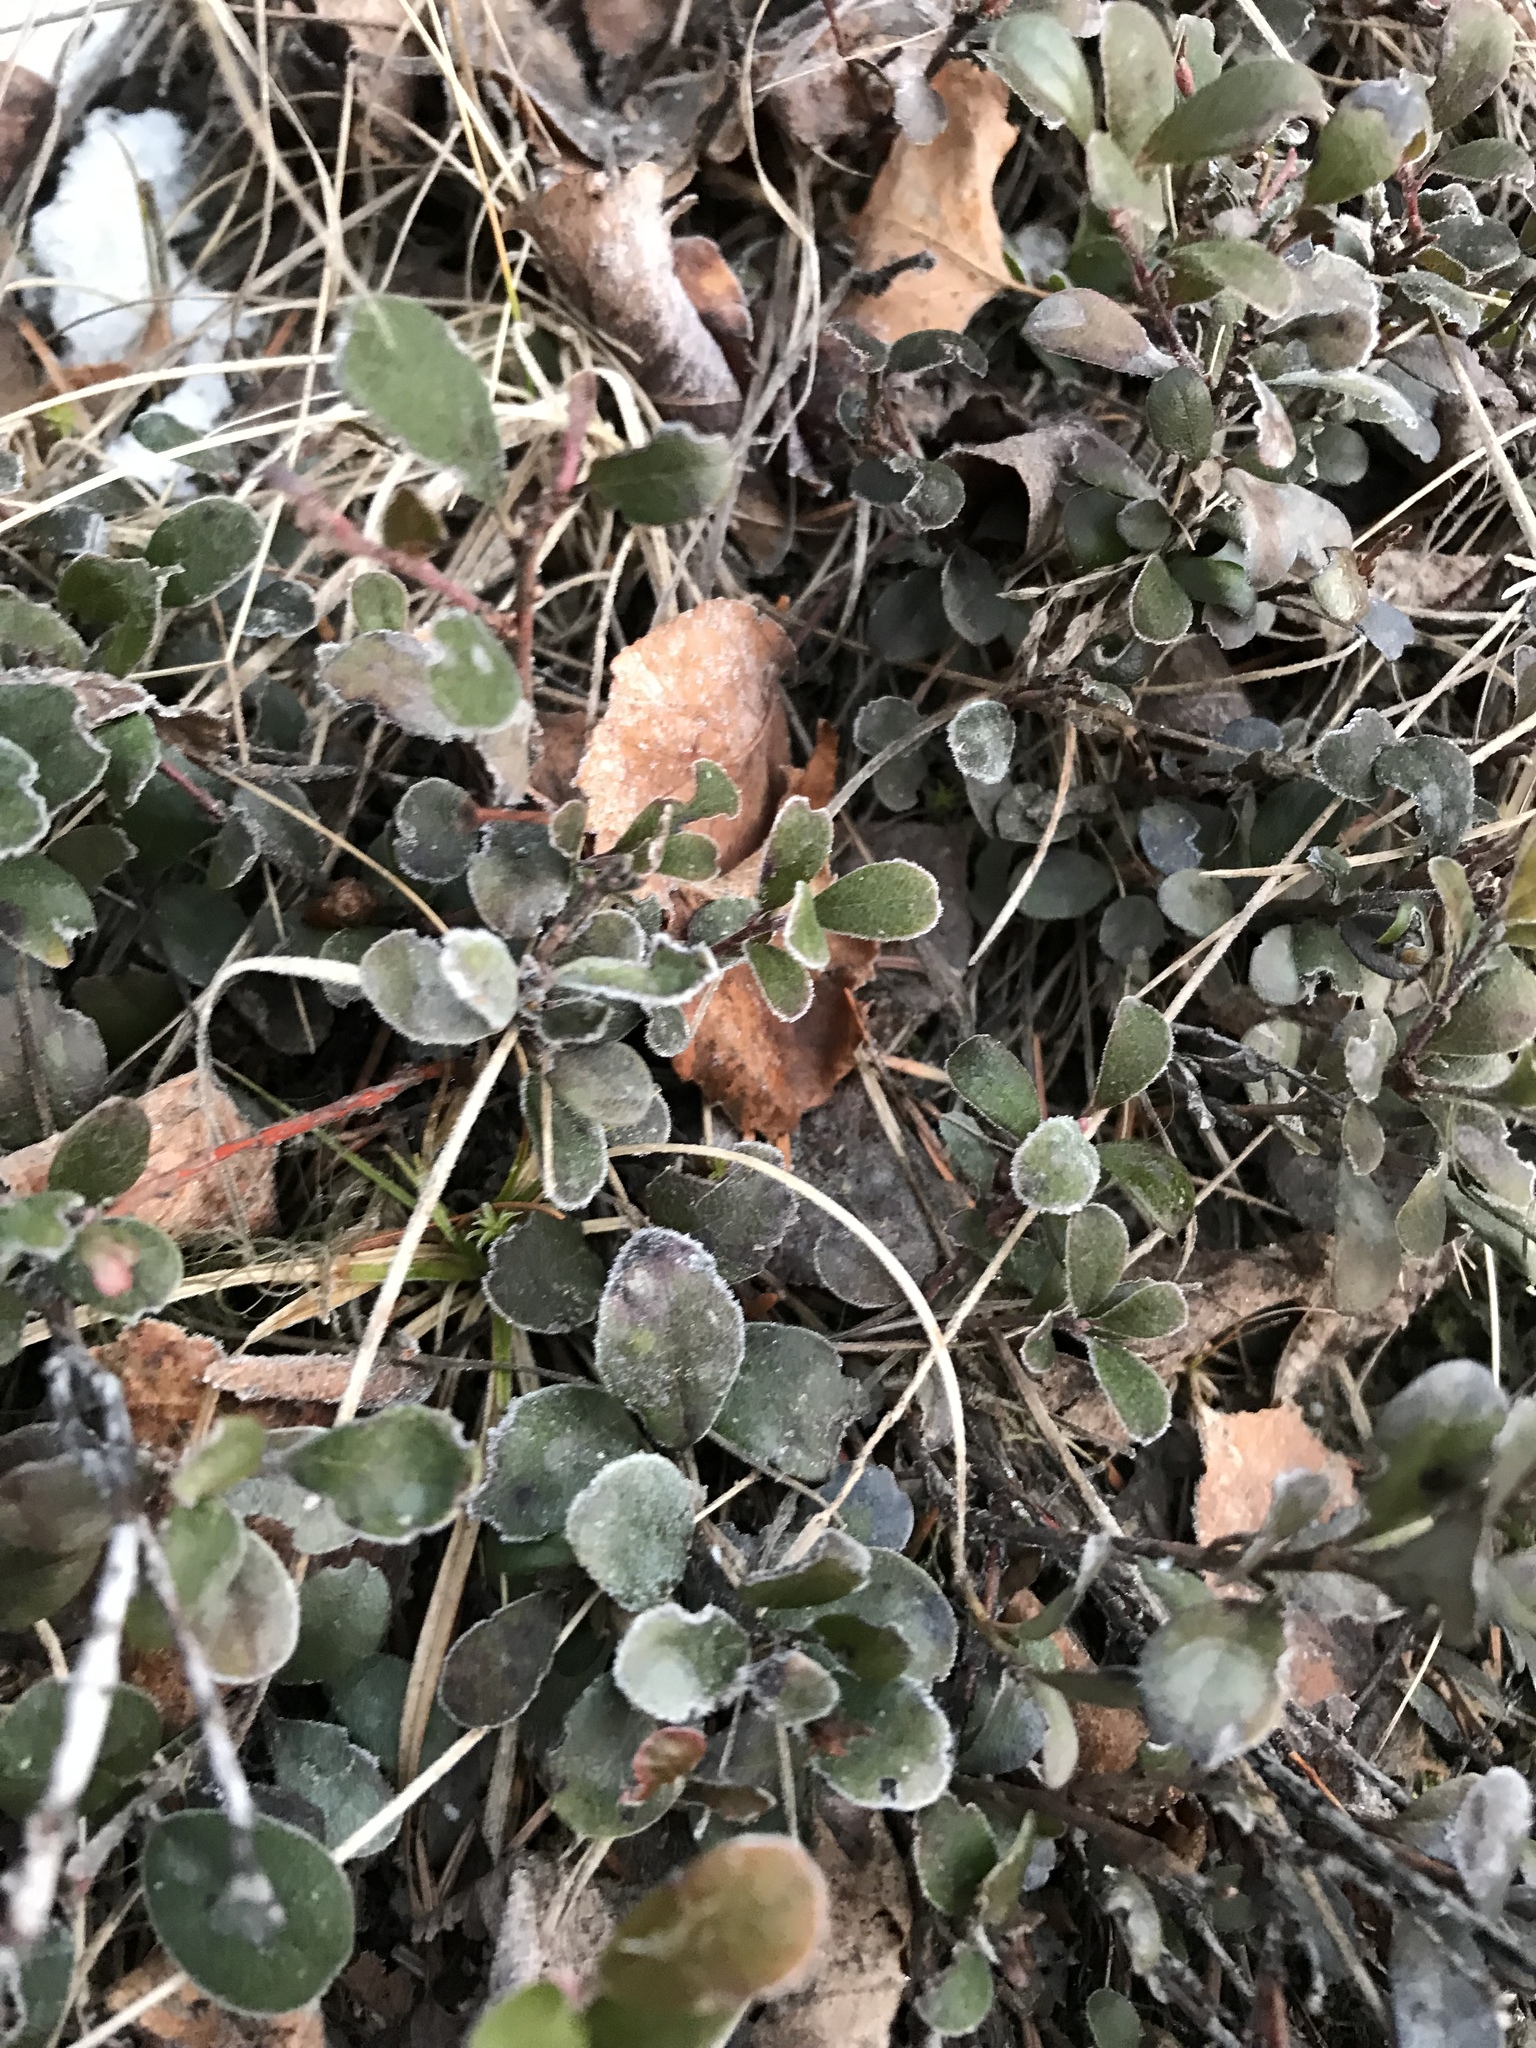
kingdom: Plantae
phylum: Tracheophyta
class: Magnoliopsida
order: Ericales
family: Ericaceae
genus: Arctostaphylos
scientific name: Arctostaphylos uva-ursi
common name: Bearberry
